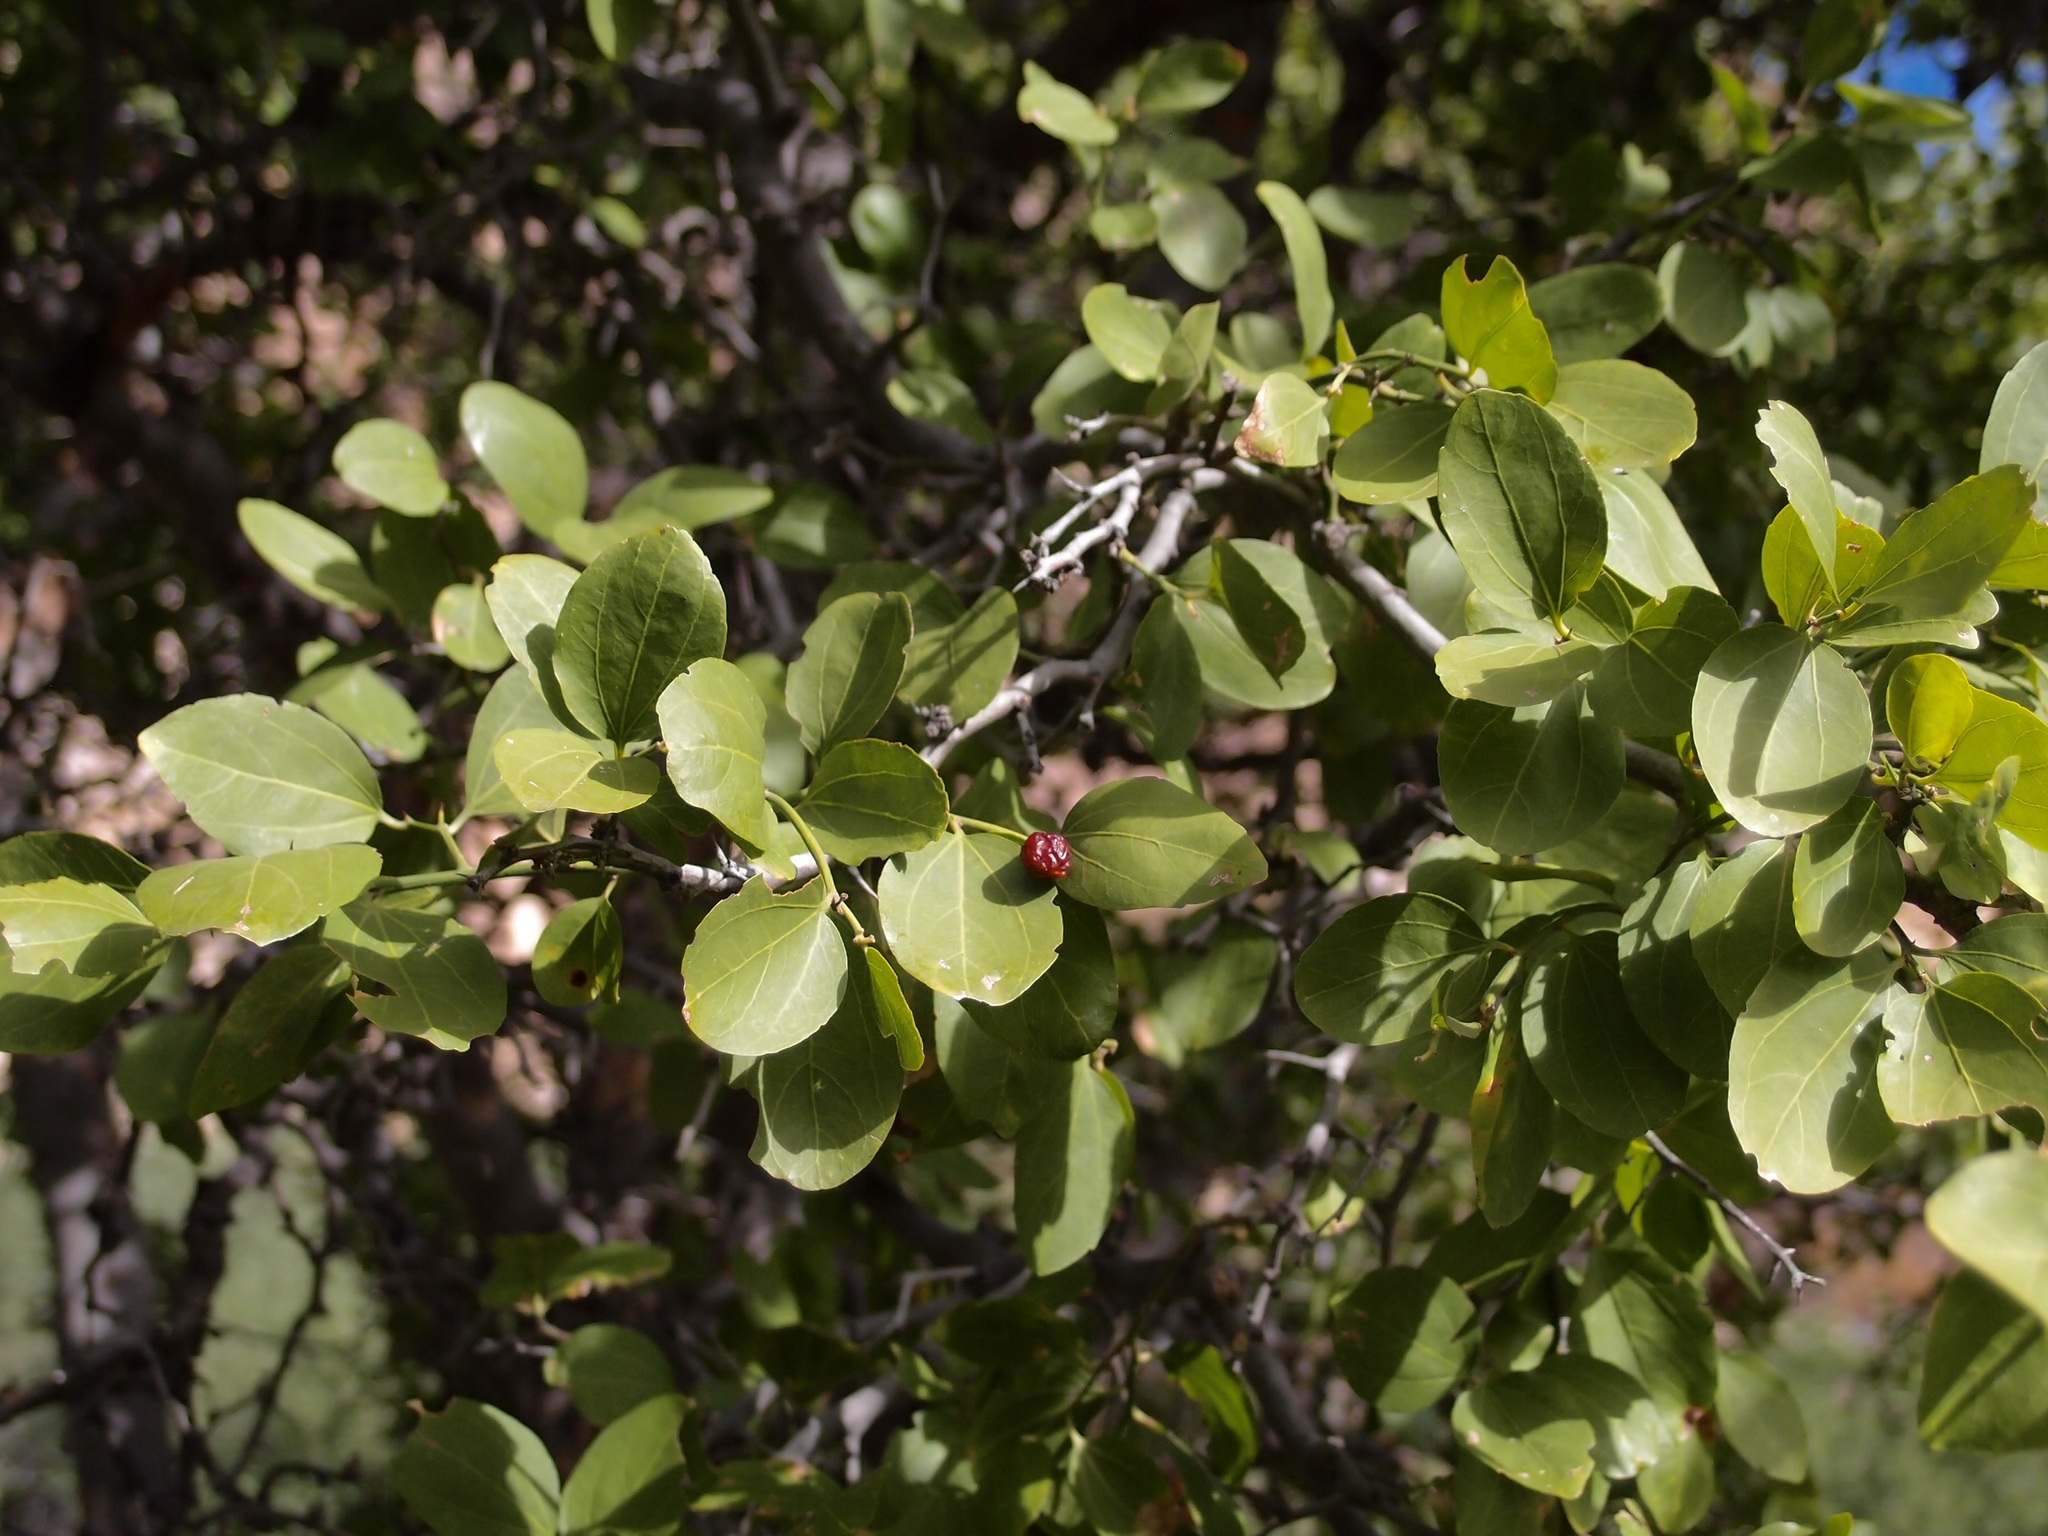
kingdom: Plantae
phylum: Tracheophyta
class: Magnoliopsida
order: Rosales
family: Rhamnaceae
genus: Sarcomphalus
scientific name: Sarcomphalus amole
